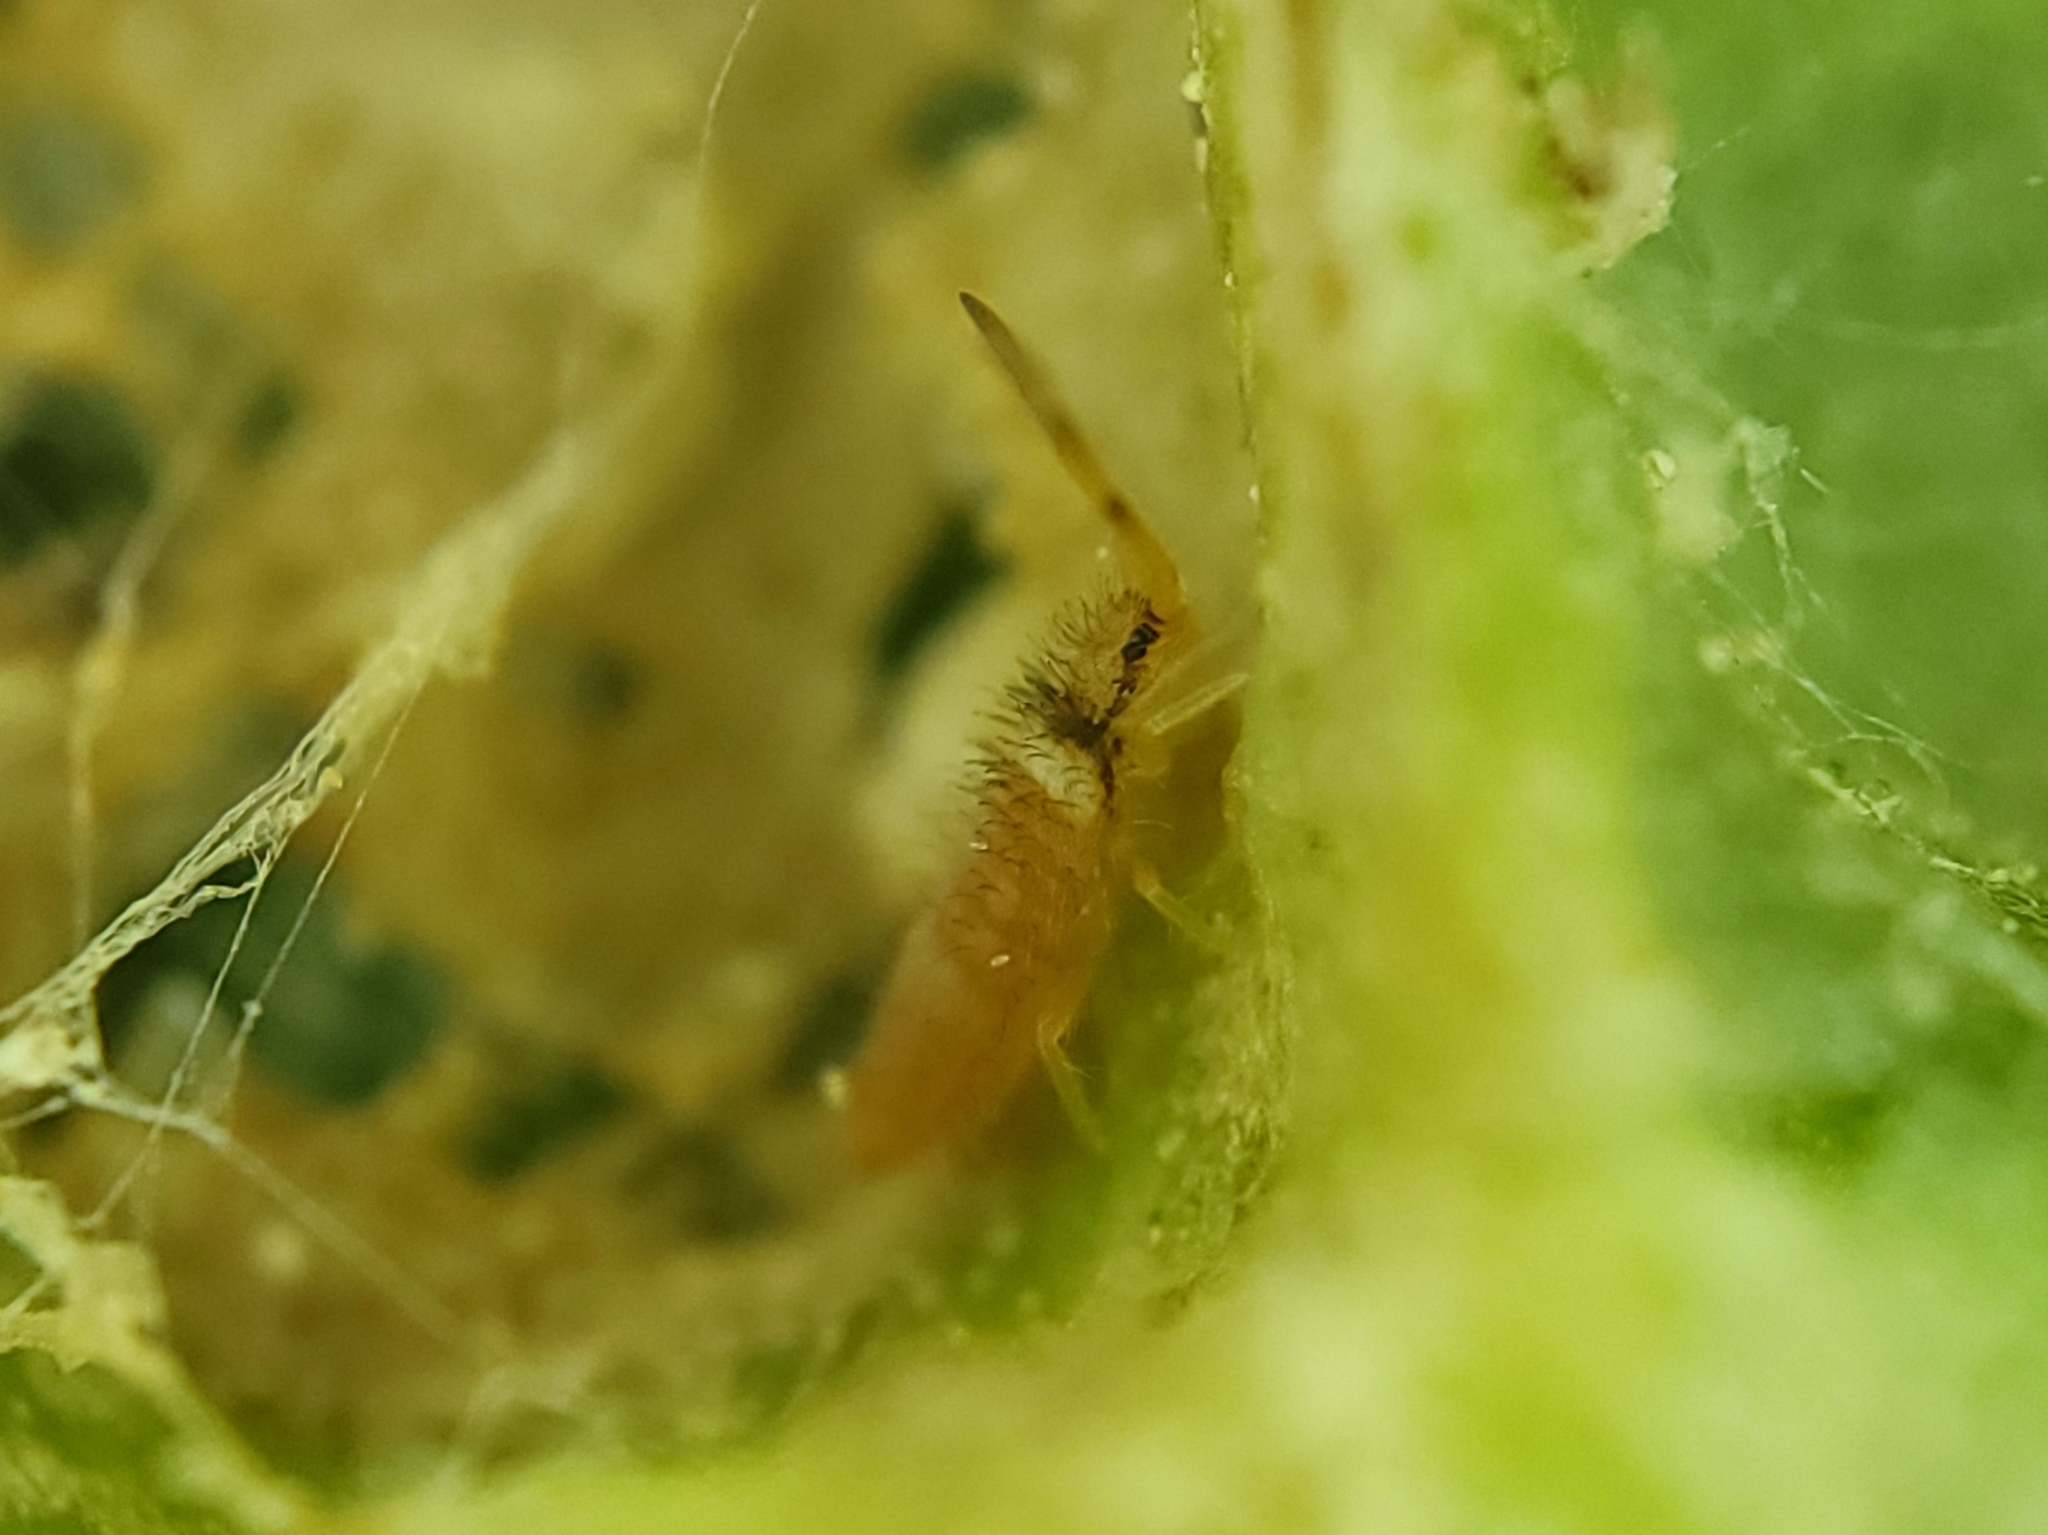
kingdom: Animalia
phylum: Arthropoda
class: Collembola
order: Entomobryomorpha
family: Entomobryidae
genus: Entomobrya
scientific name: Entomobrya atrocincta
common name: Springtail
